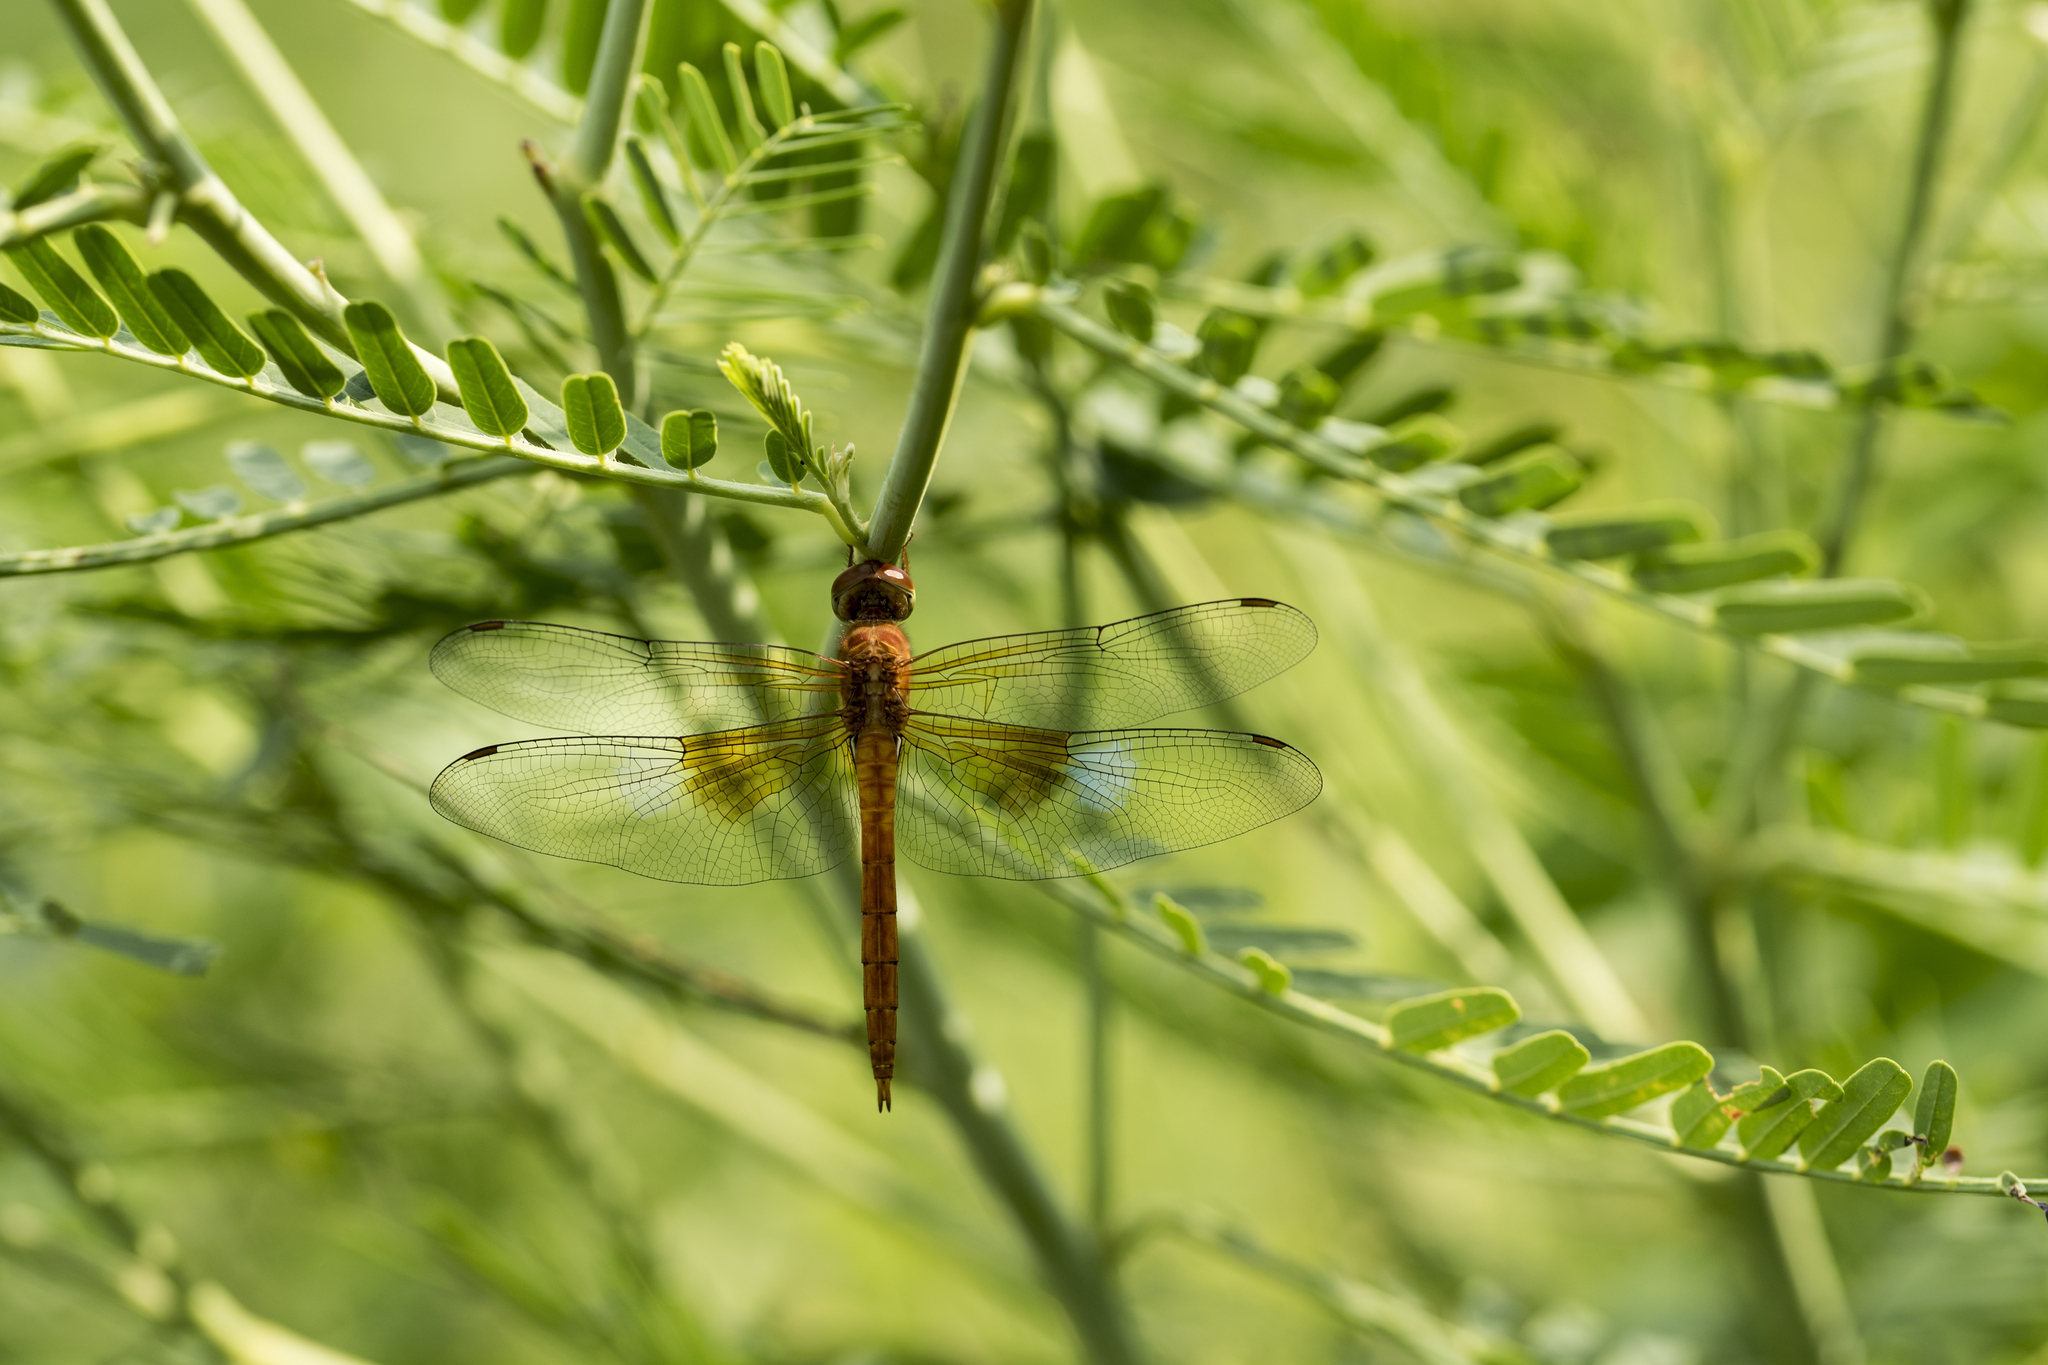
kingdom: Animalia
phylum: Arthropoda
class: Insecta
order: Odonata
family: Libellulidae
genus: Tholymis
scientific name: Tholymis tillarga
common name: Coral-tailed cloud wing
